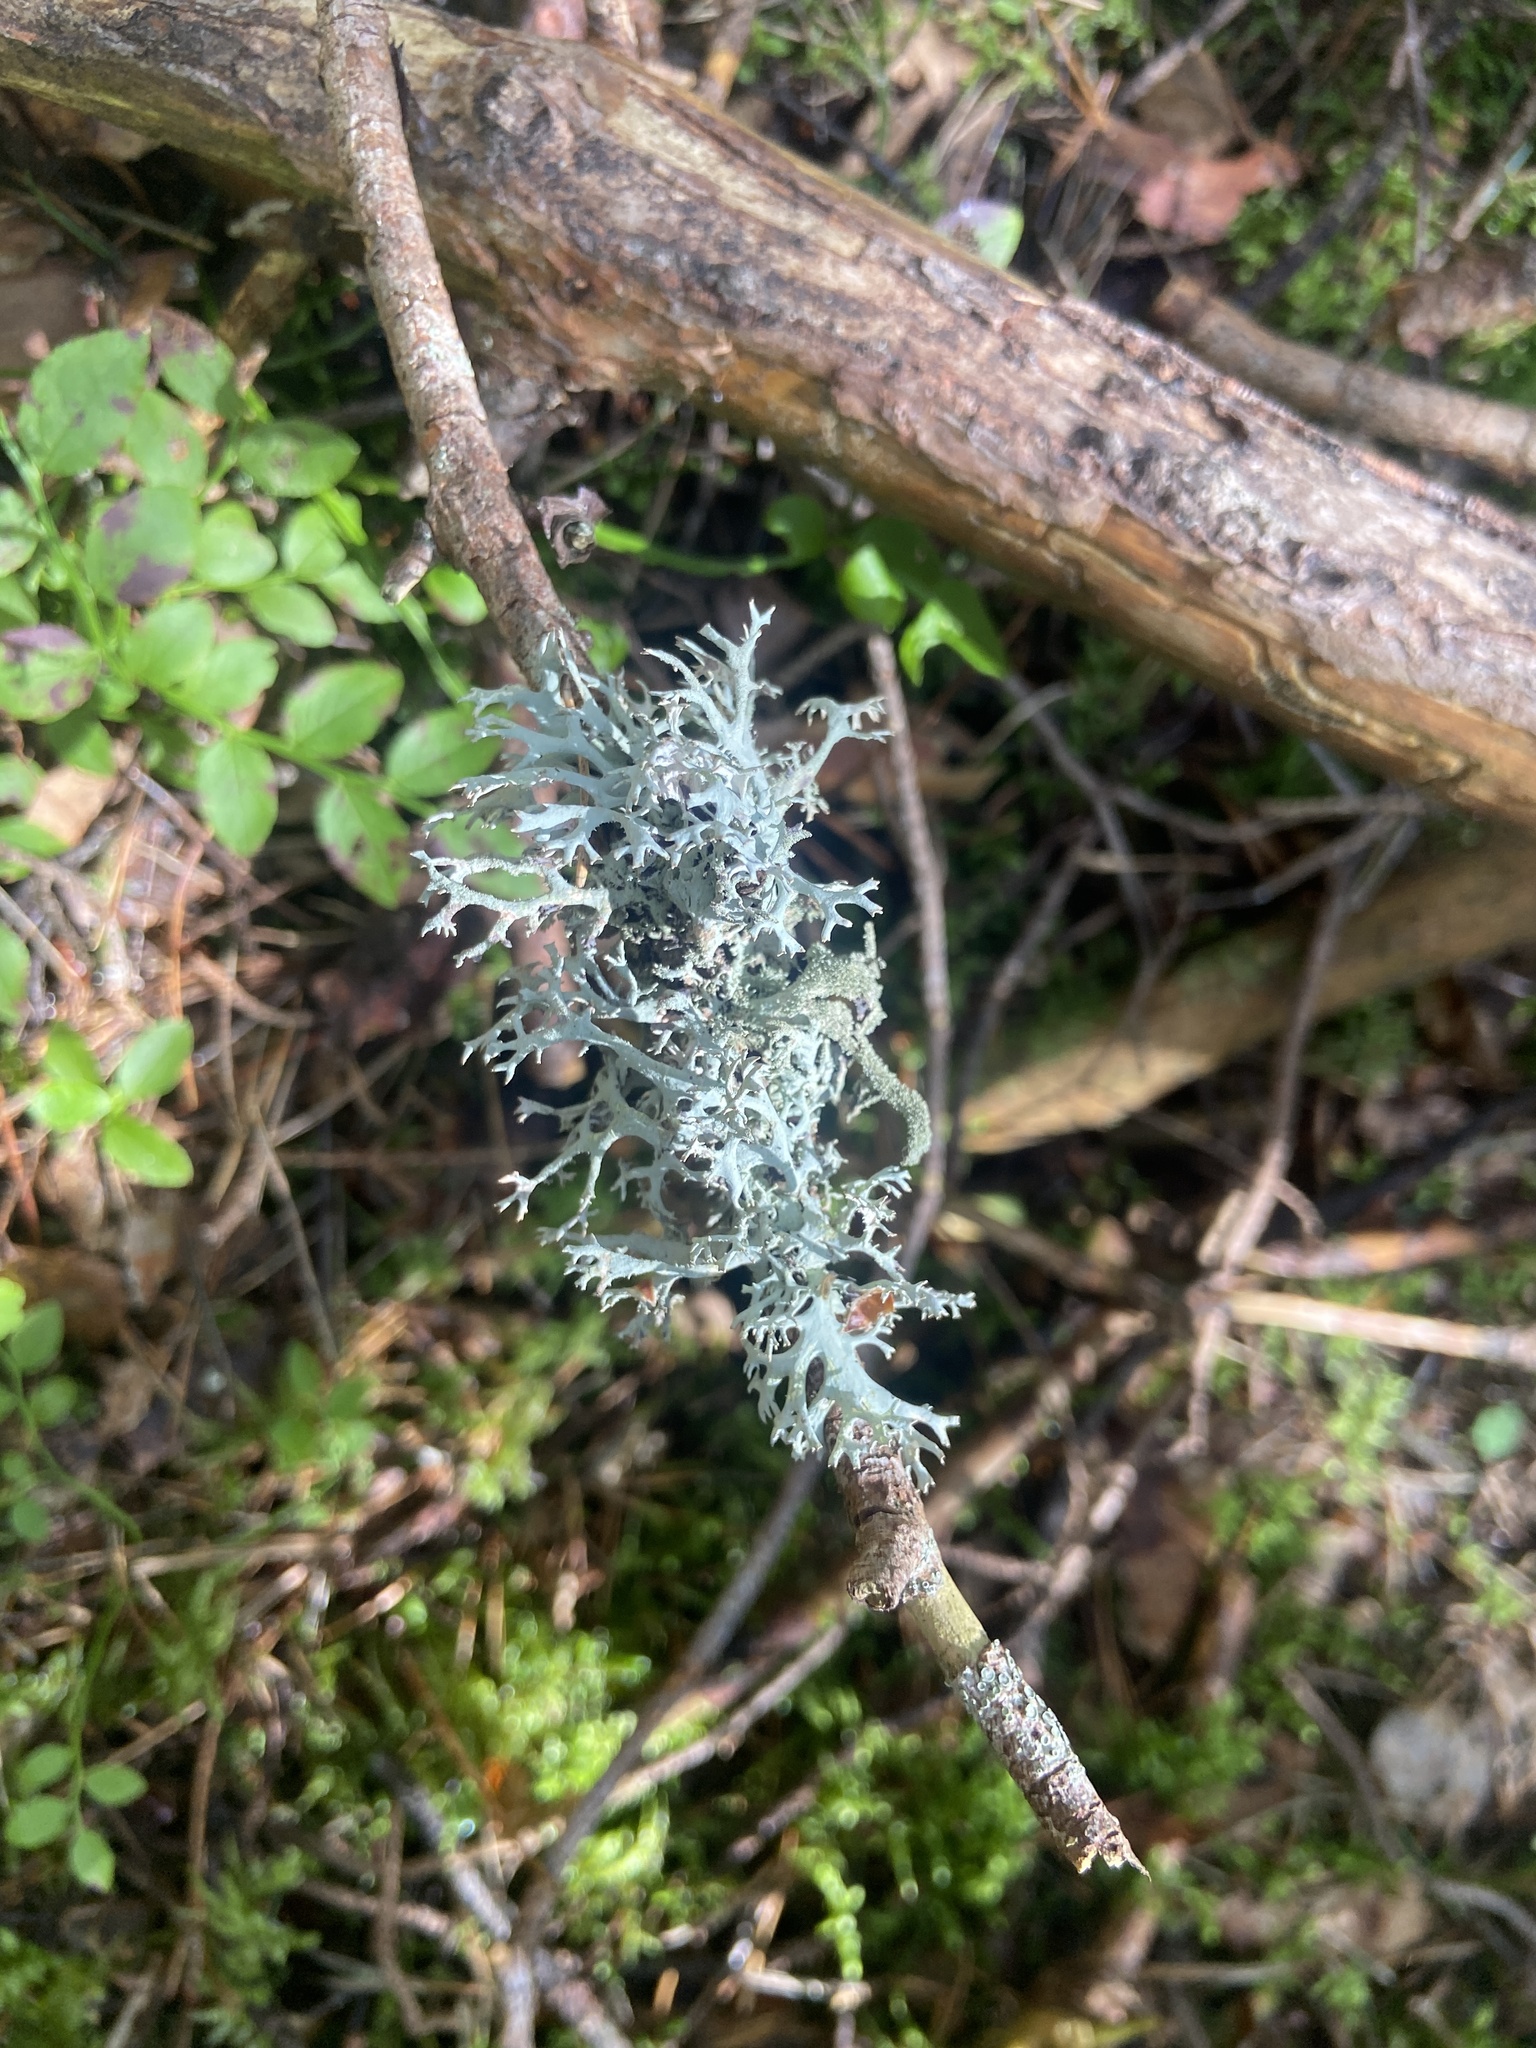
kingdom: Fungi
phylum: Ascomycota
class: Lecanoromycetes
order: Lecanorales
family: Parmeliaceae
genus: Pseudevernia
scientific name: Pseudevernia furfuracea
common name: Tree moss
